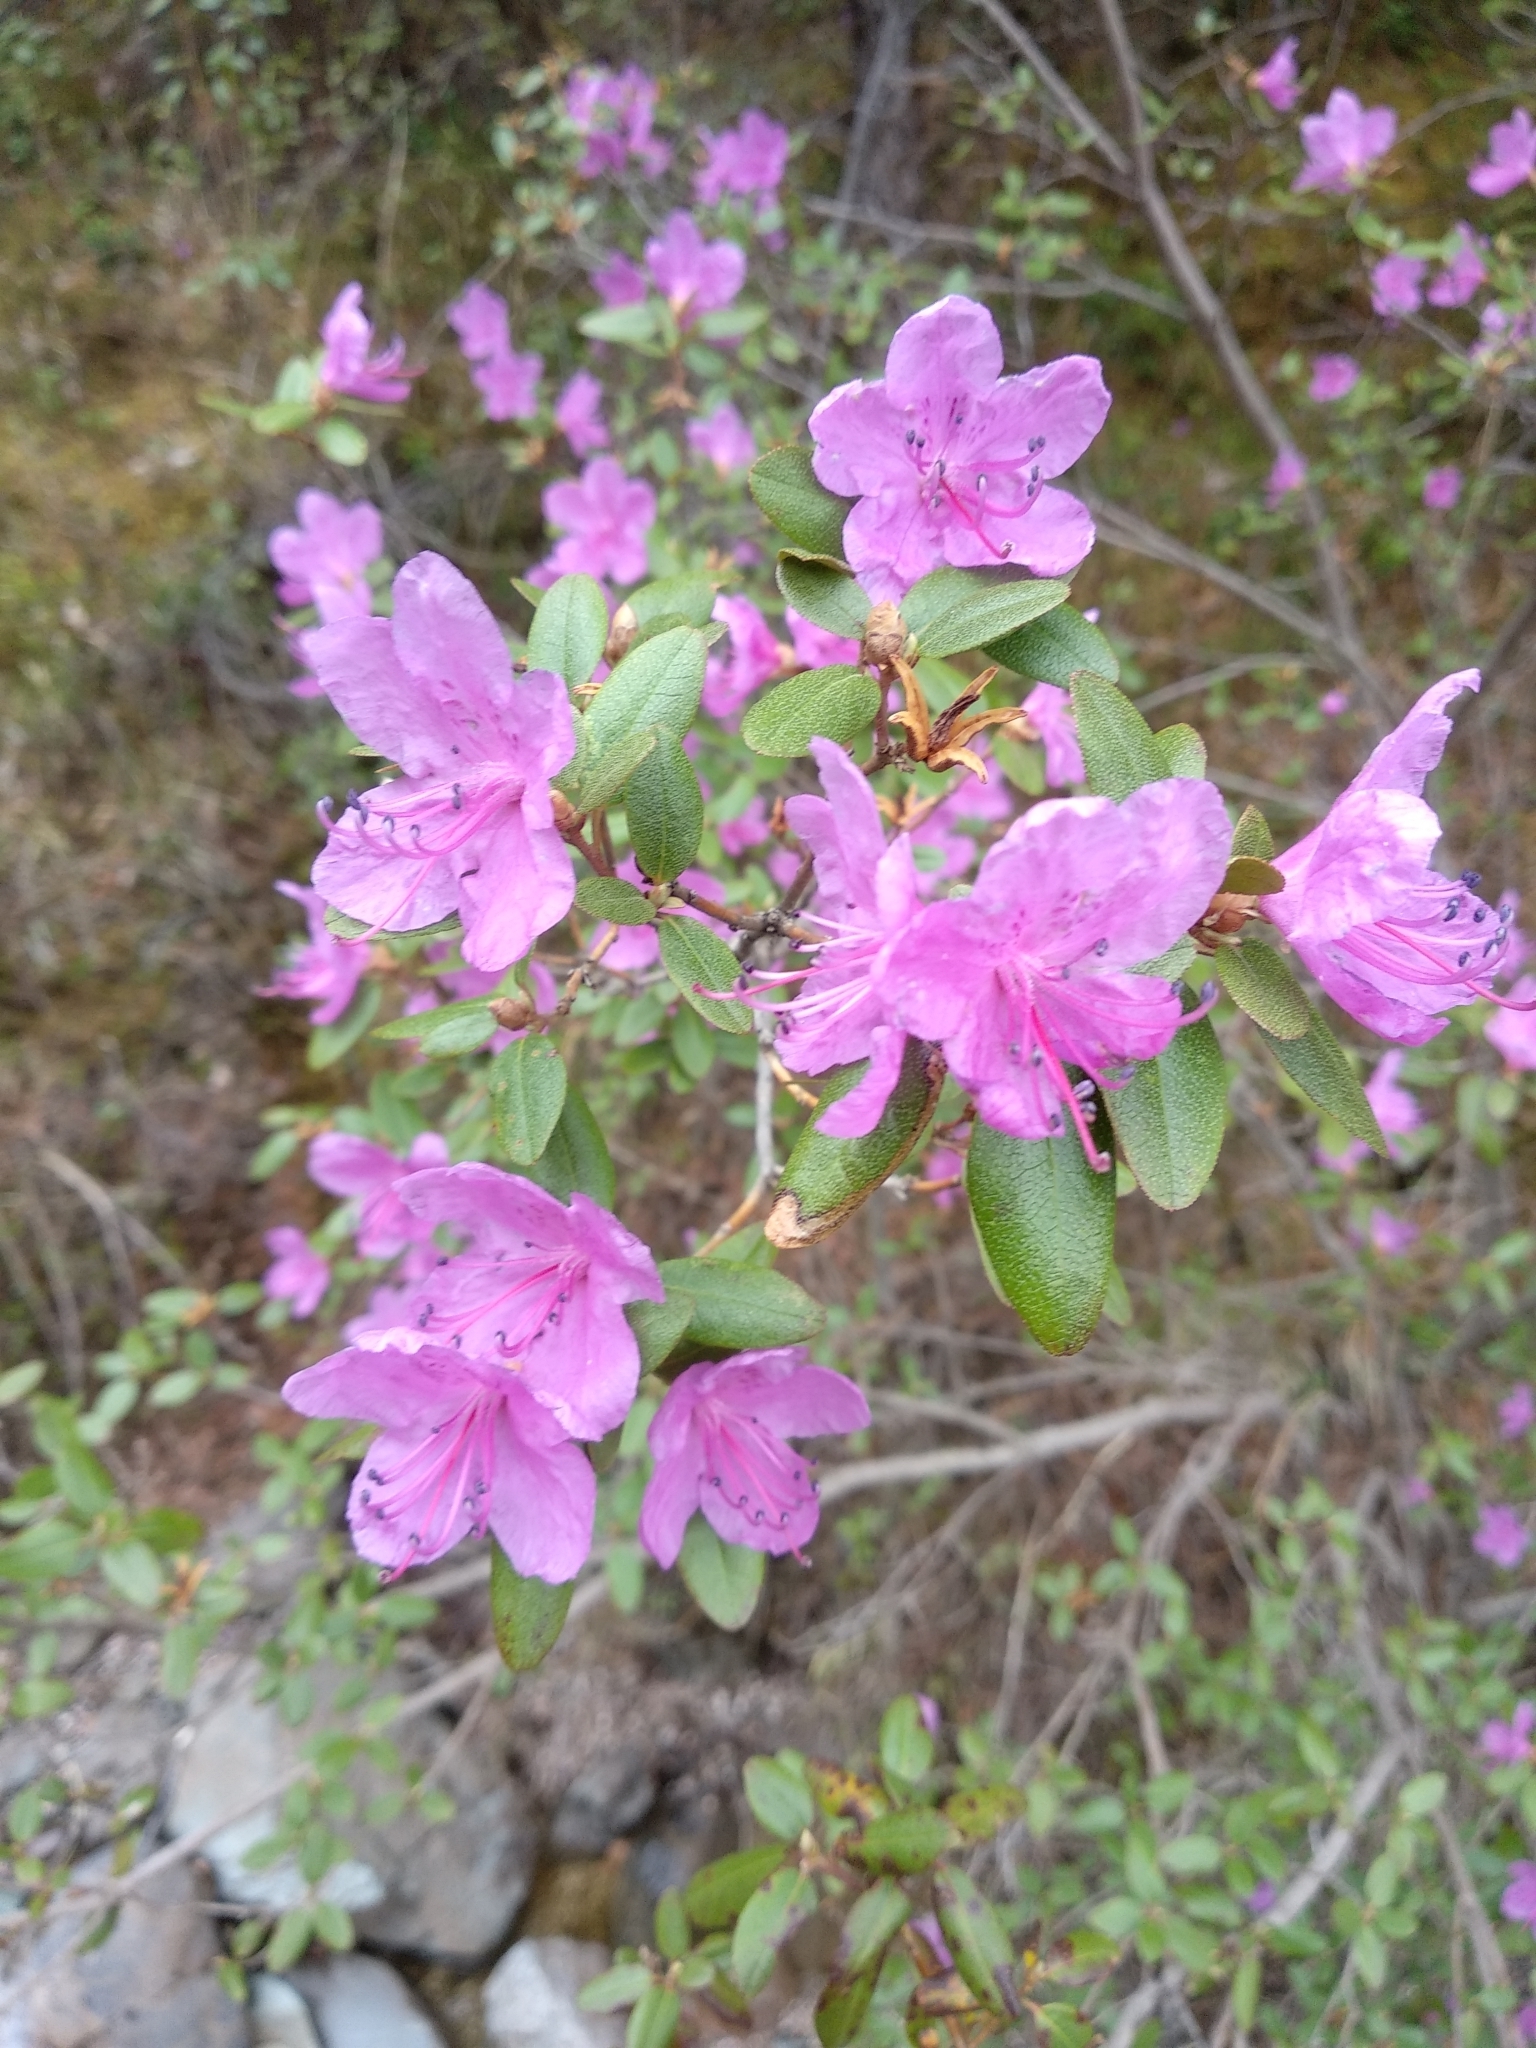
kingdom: Plantae
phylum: Tracheophyta
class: Magnoliopsida
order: Ericales
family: Ericaceae
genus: Rhododendron
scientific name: Rhododendron dauricum
